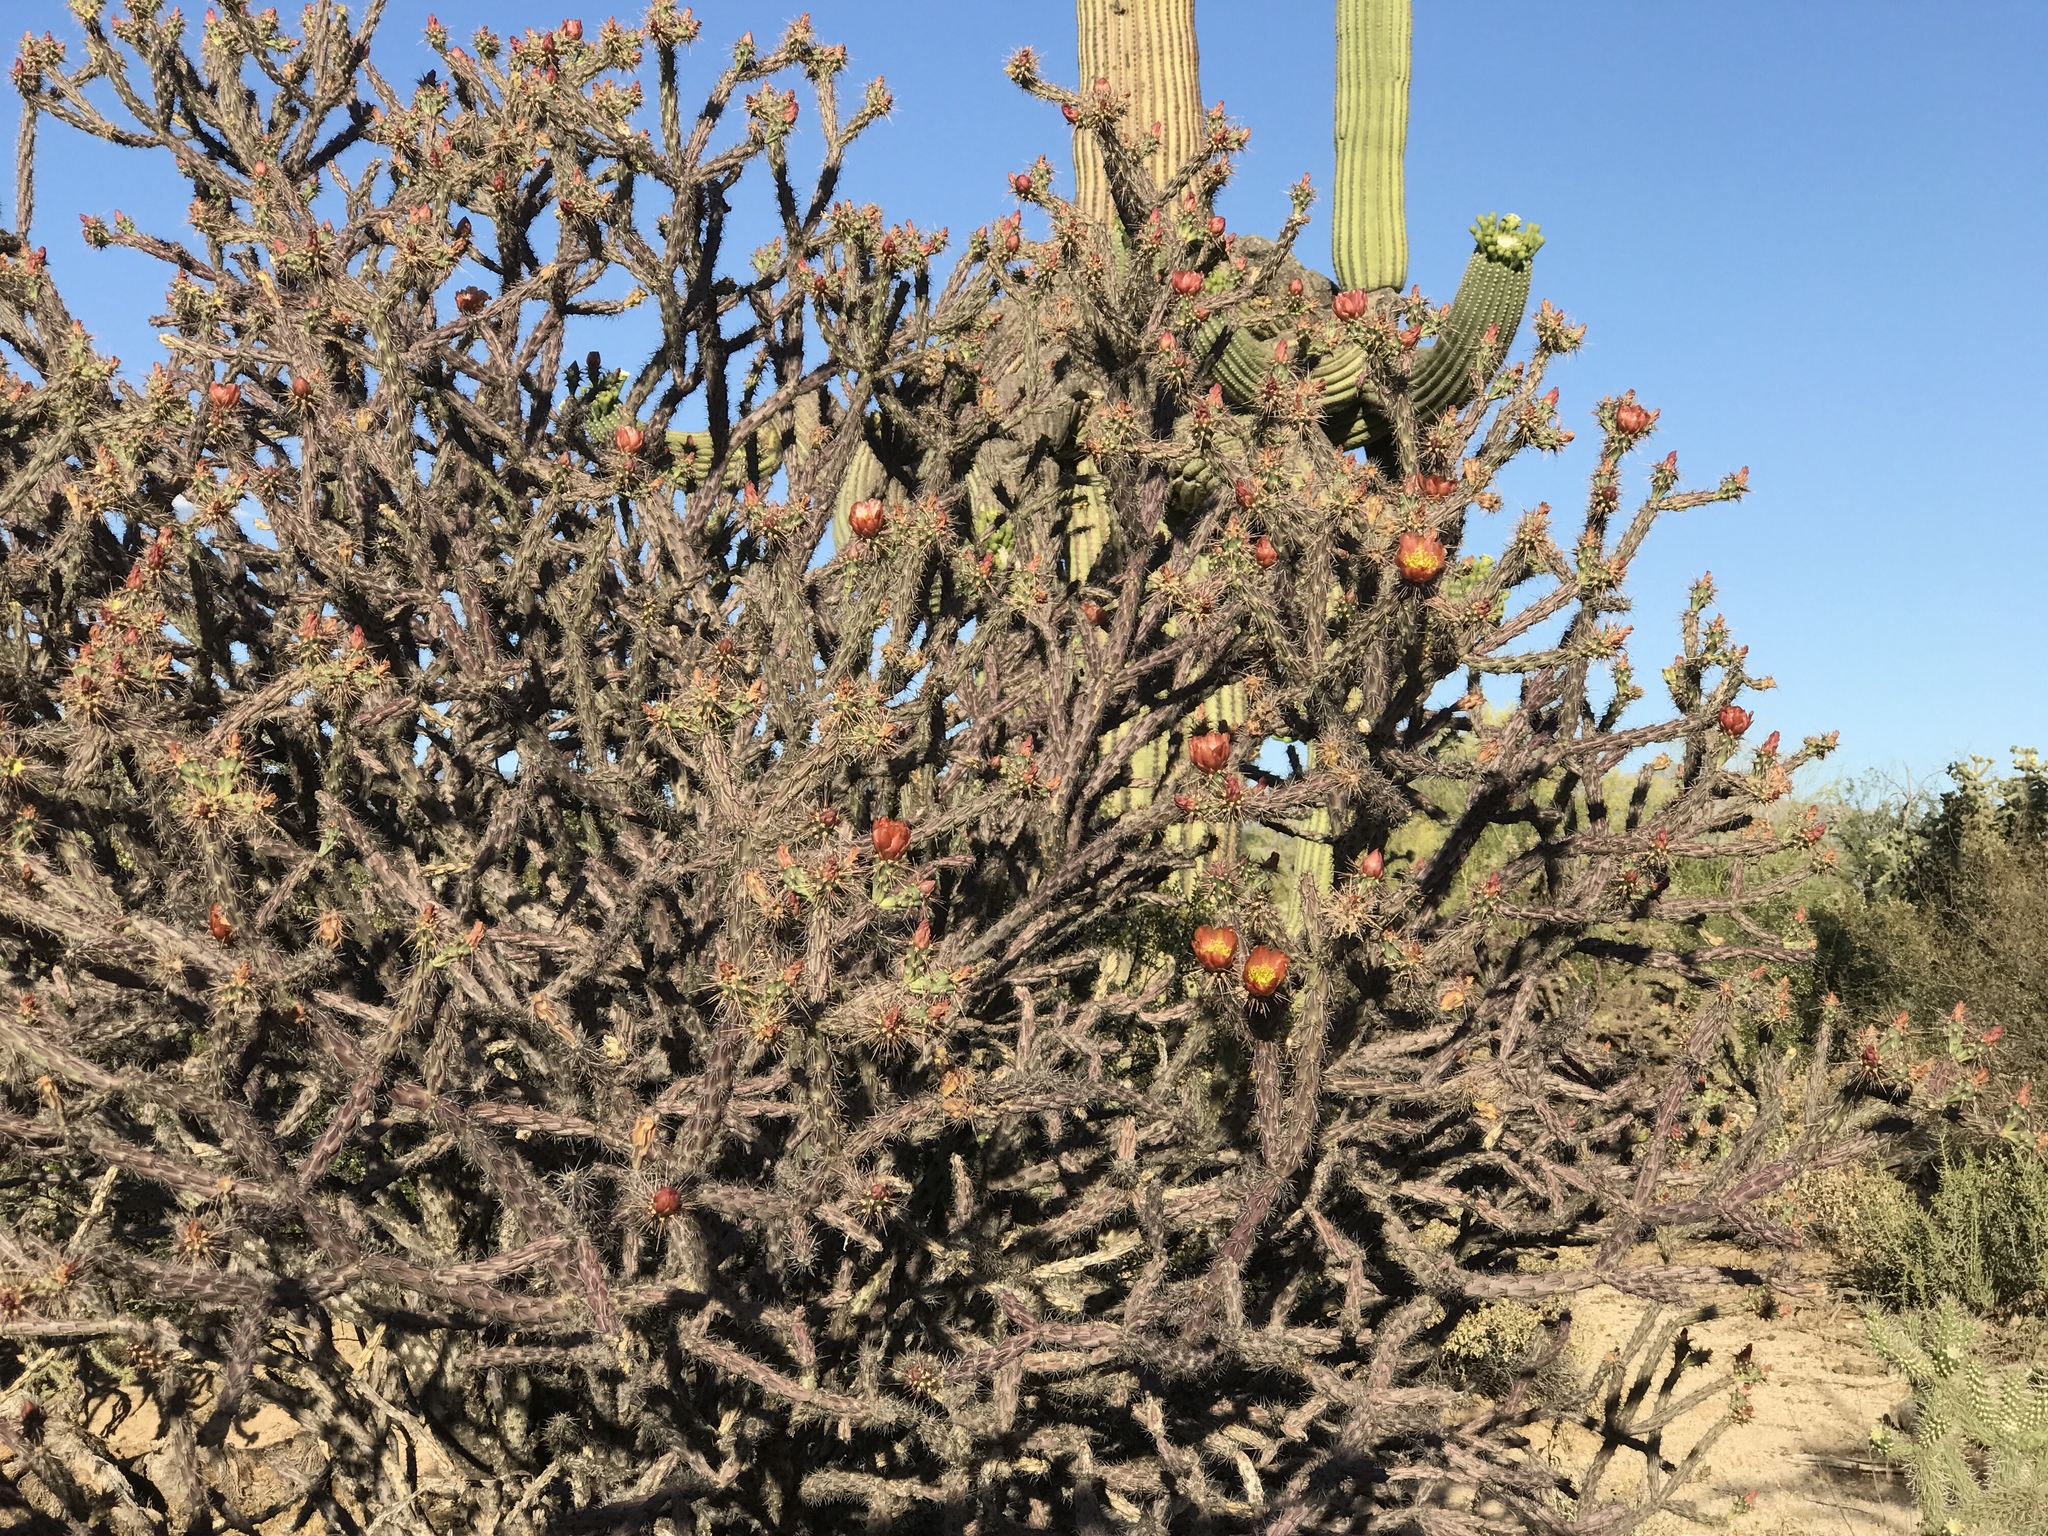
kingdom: Plantae
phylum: Tracheophyta
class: Magnoliopsida
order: Caryophyllales
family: Cactaceae
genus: Cylindropuntia
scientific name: Cylindropuntia thurberi
